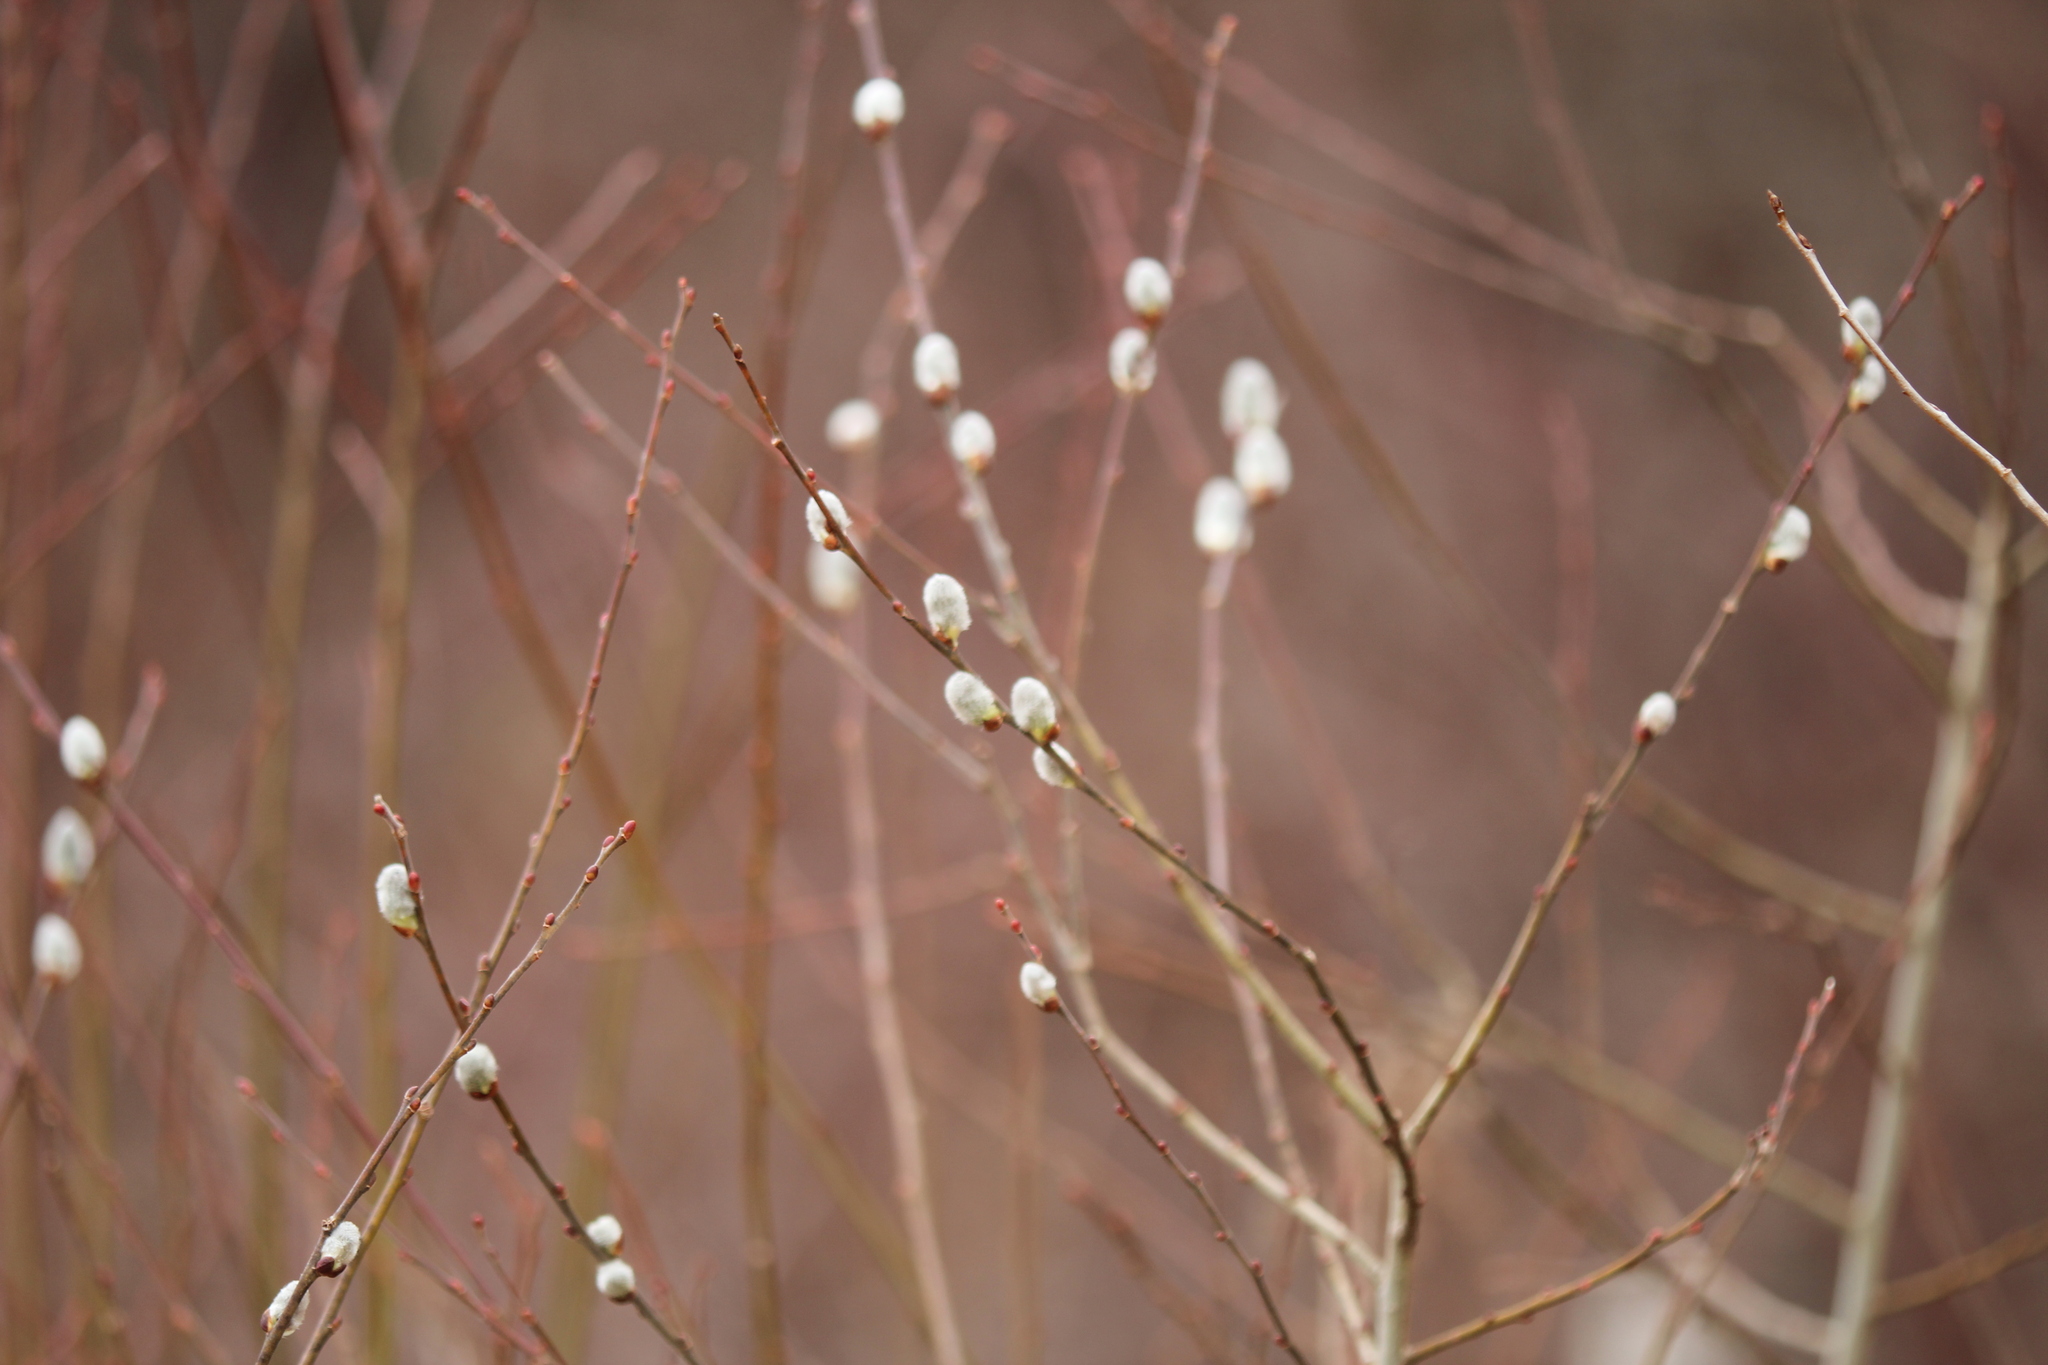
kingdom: Plantae
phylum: Tracheophyta
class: Magnoliopsida
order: Malpighiales
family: Salicaceae
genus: Salix
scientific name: Salix discolor
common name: Glaucous willow
